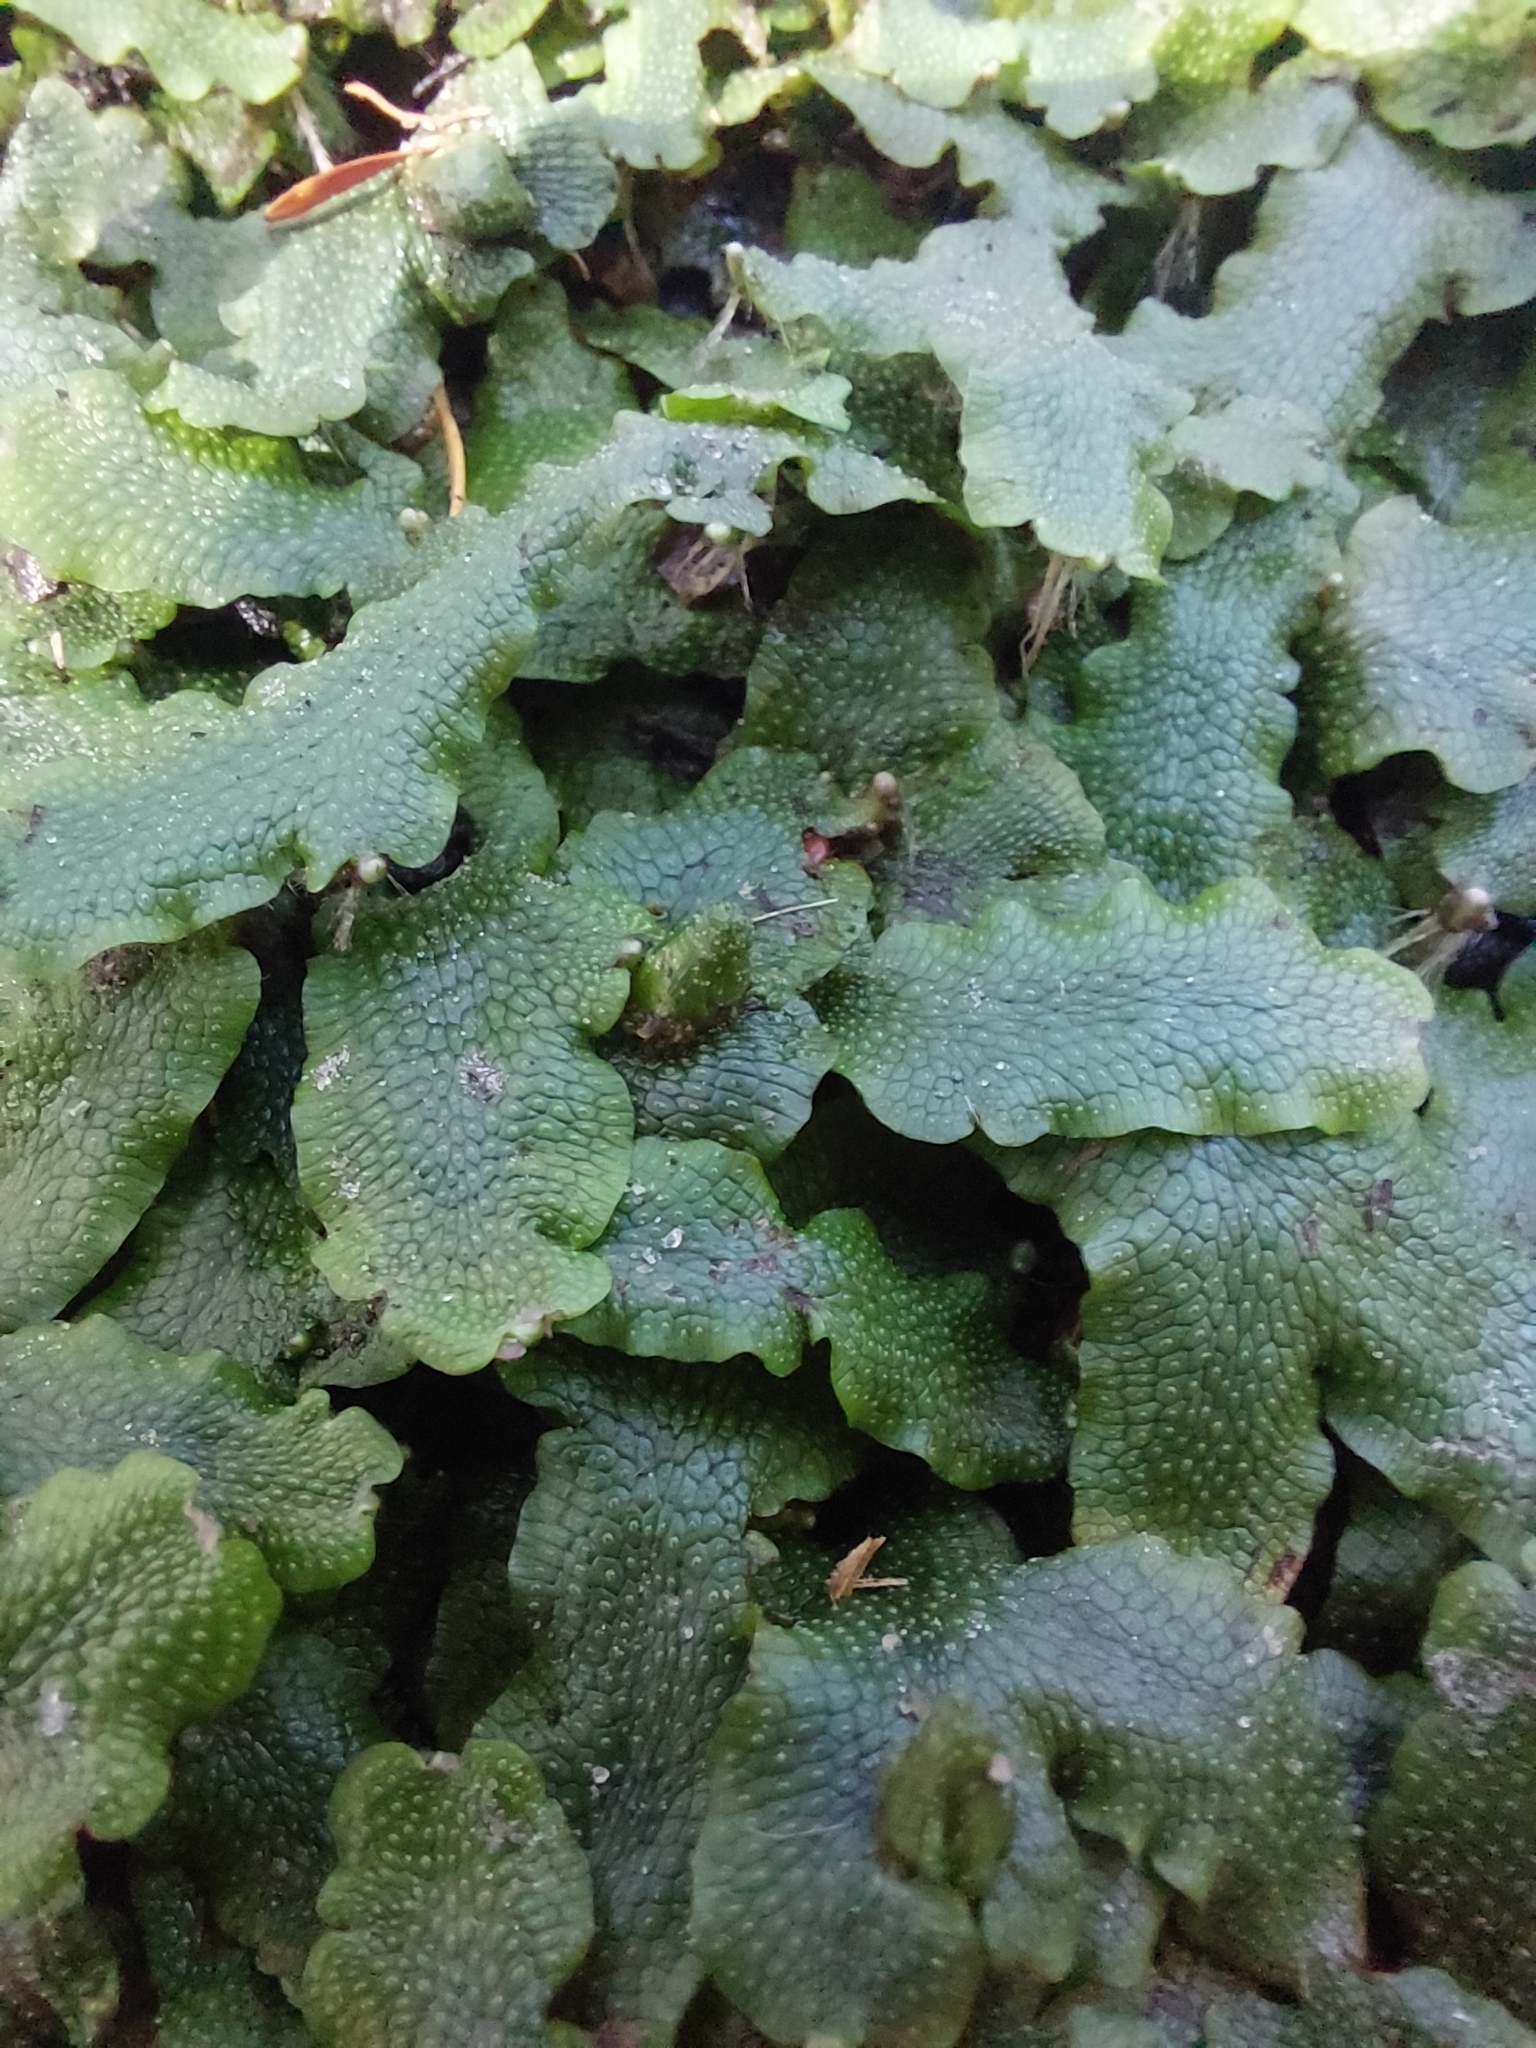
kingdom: Plantae
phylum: Marchantiophyta
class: Marchantiopsida
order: Marchantiales
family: Conocephalaceae
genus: Conocephalum
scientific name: Conocephalum salebrosum
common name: Cat-tongue liverwort
